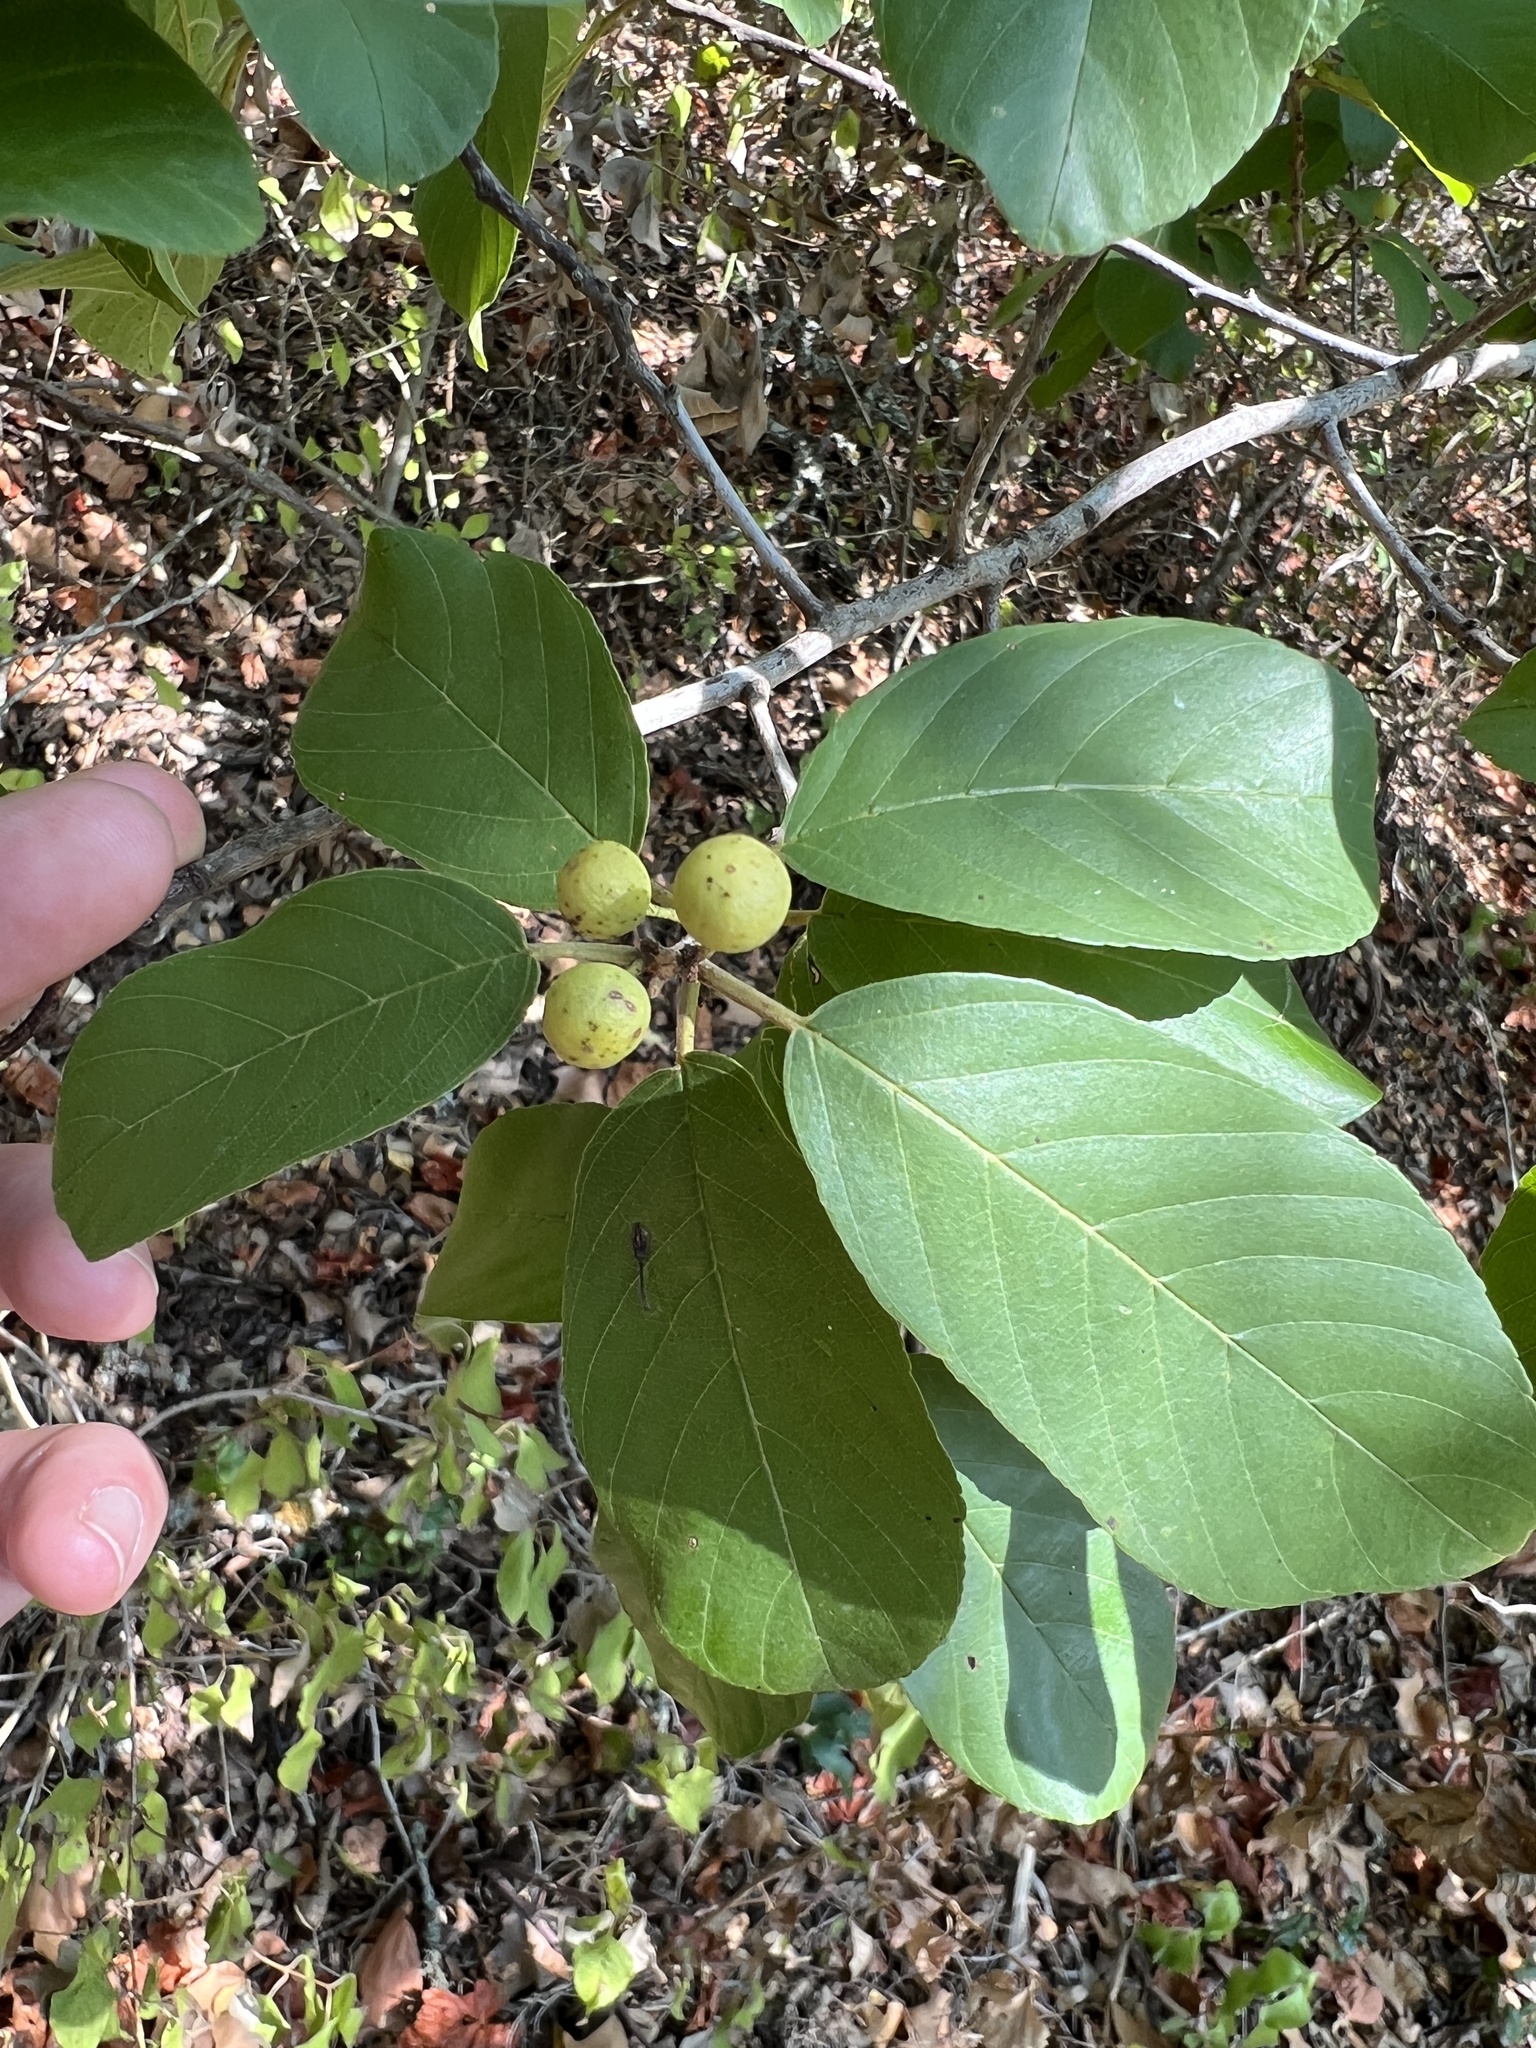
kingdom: Plantae
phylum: Tracheophyta
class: Magnoliopsida
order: Rosales
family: Rhamnaceae
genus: Frangula
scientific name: Frangula caroliniana
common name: Carolina buckthorn
